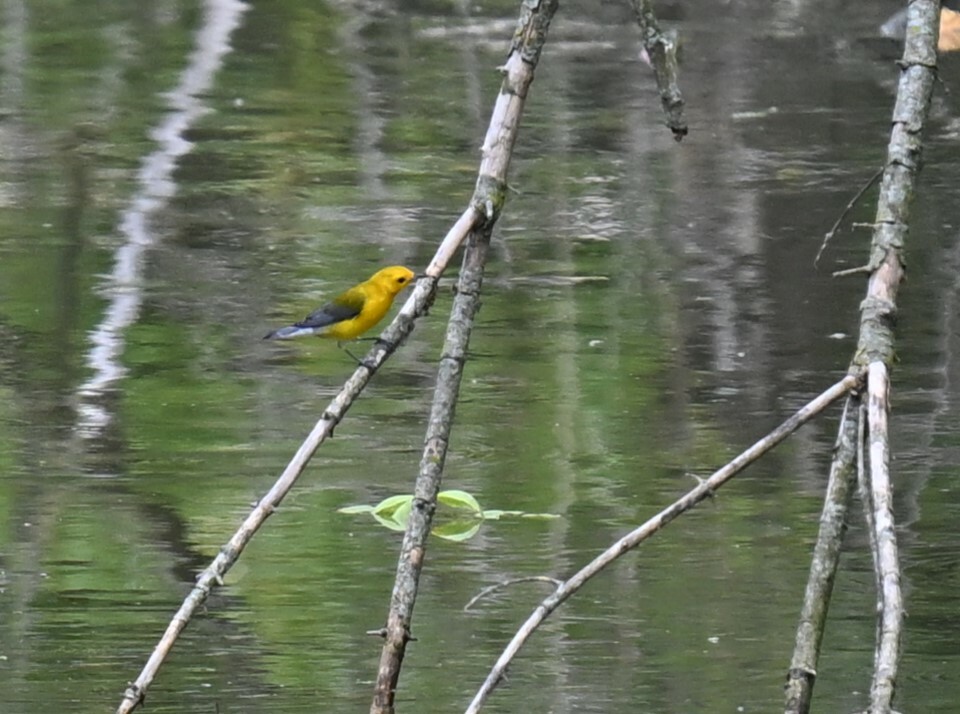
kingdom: Animalia
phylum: Chordata
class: Aves
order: Passeriformes
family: Parulidae
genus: Protonotaria
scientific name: Protonotaria citrea
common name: Prothonotary warbler
